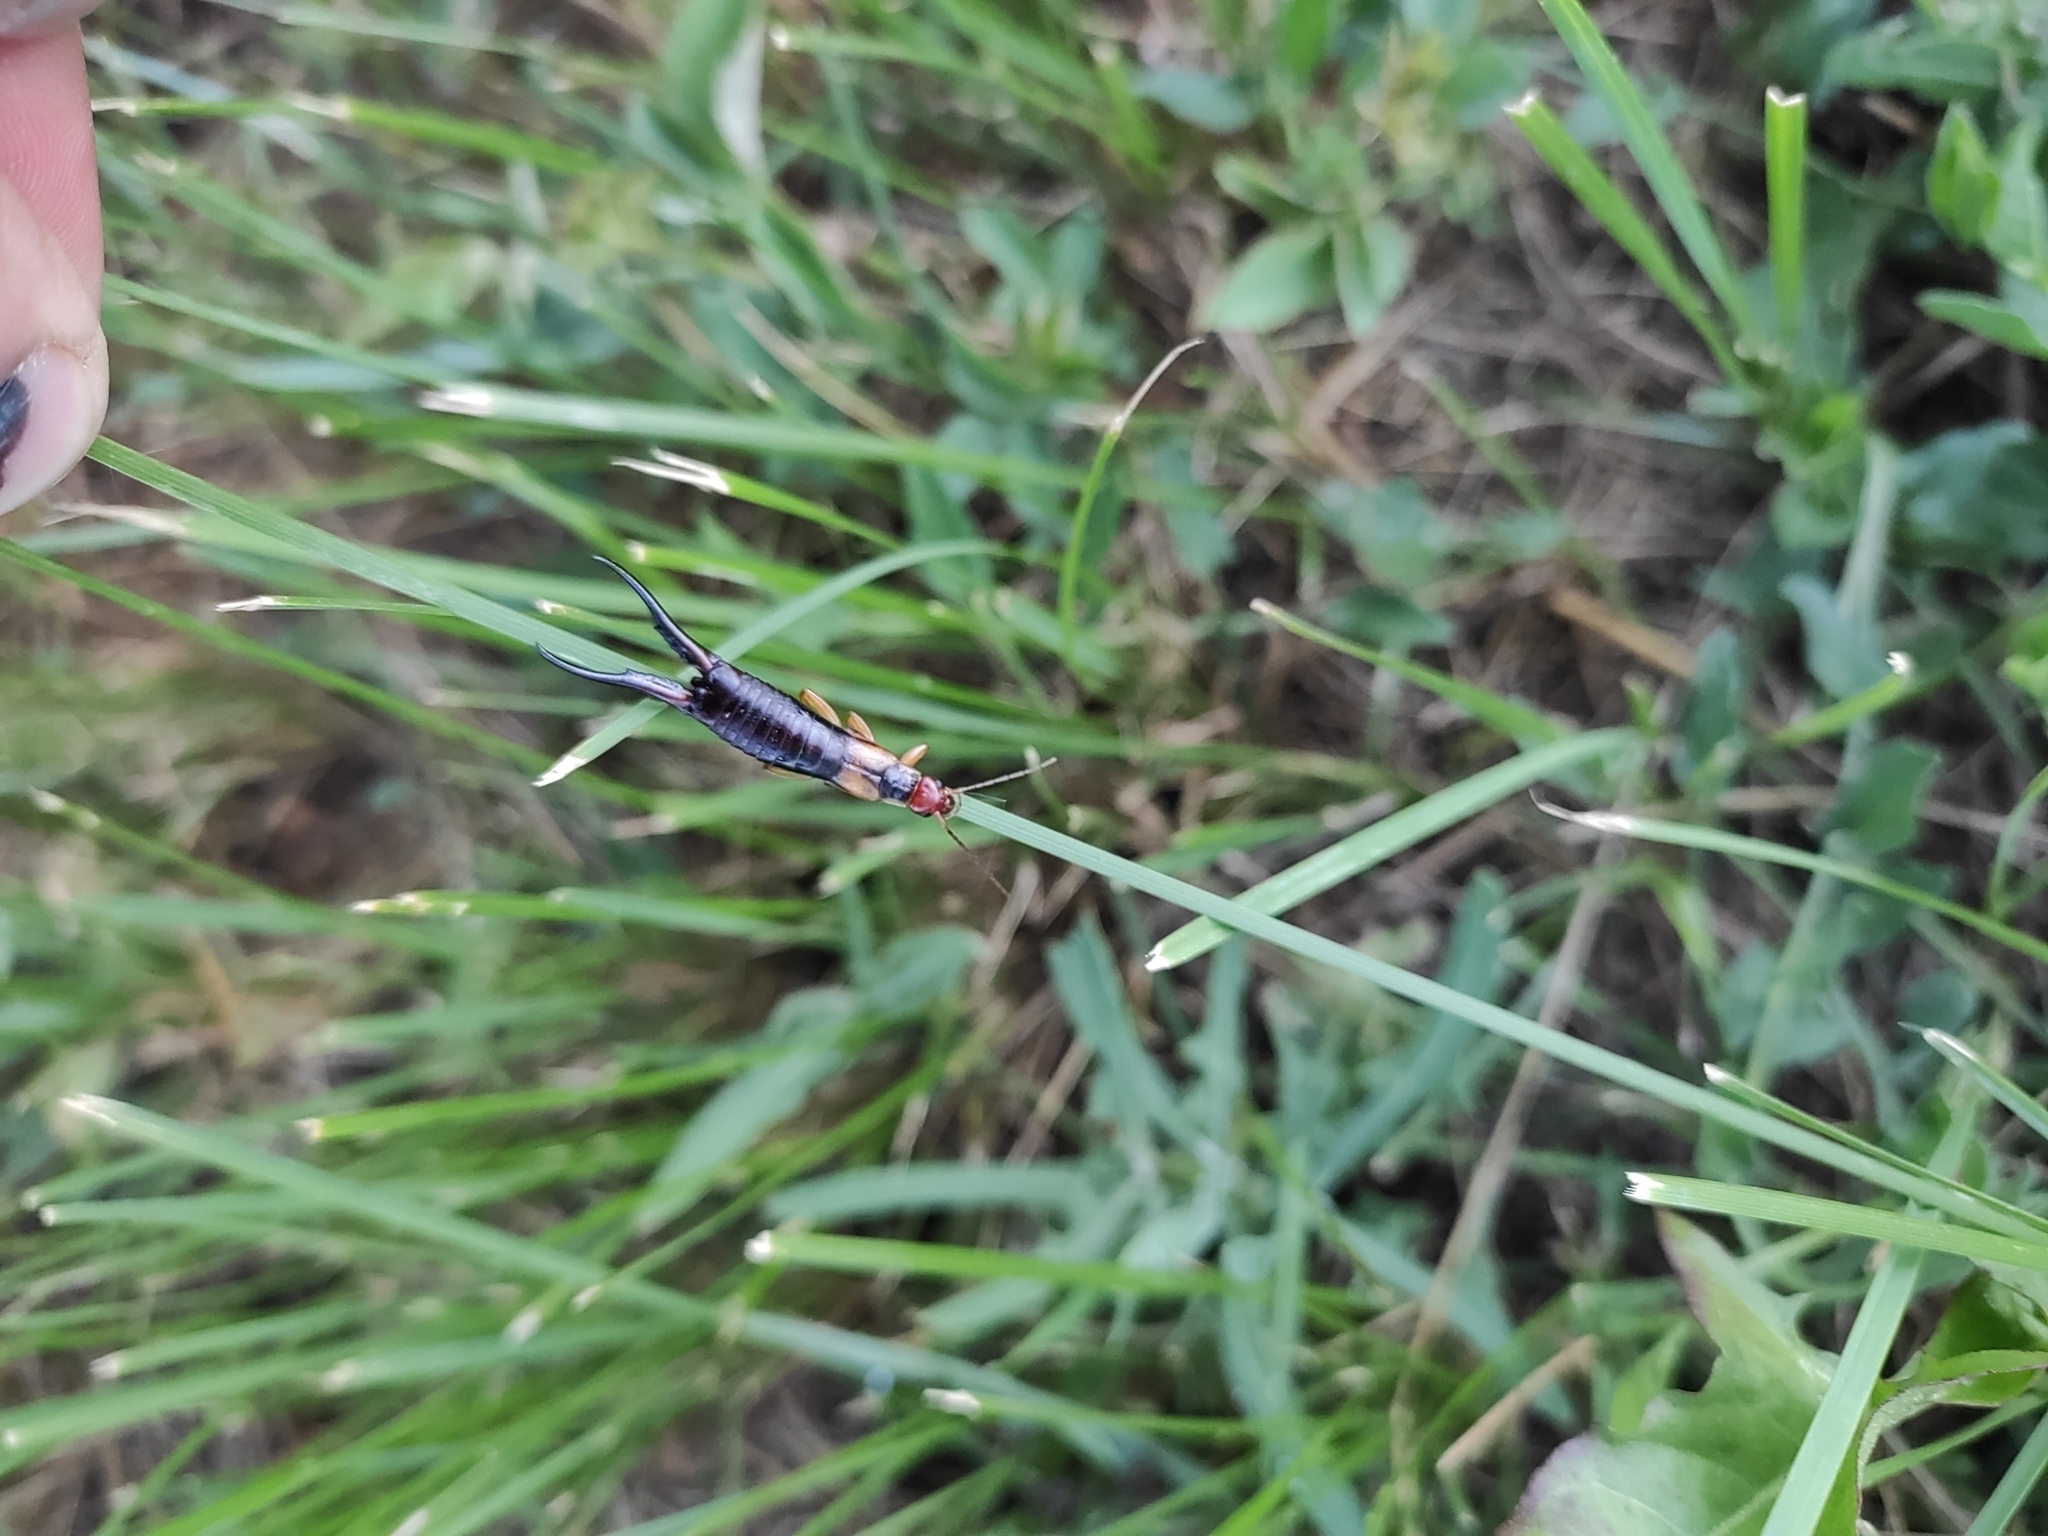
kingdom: Animalia
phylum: Arthropoda
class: Insecta
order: Dermaptera
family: Forficulidae
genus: Forficula
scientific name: Forficula tomis
